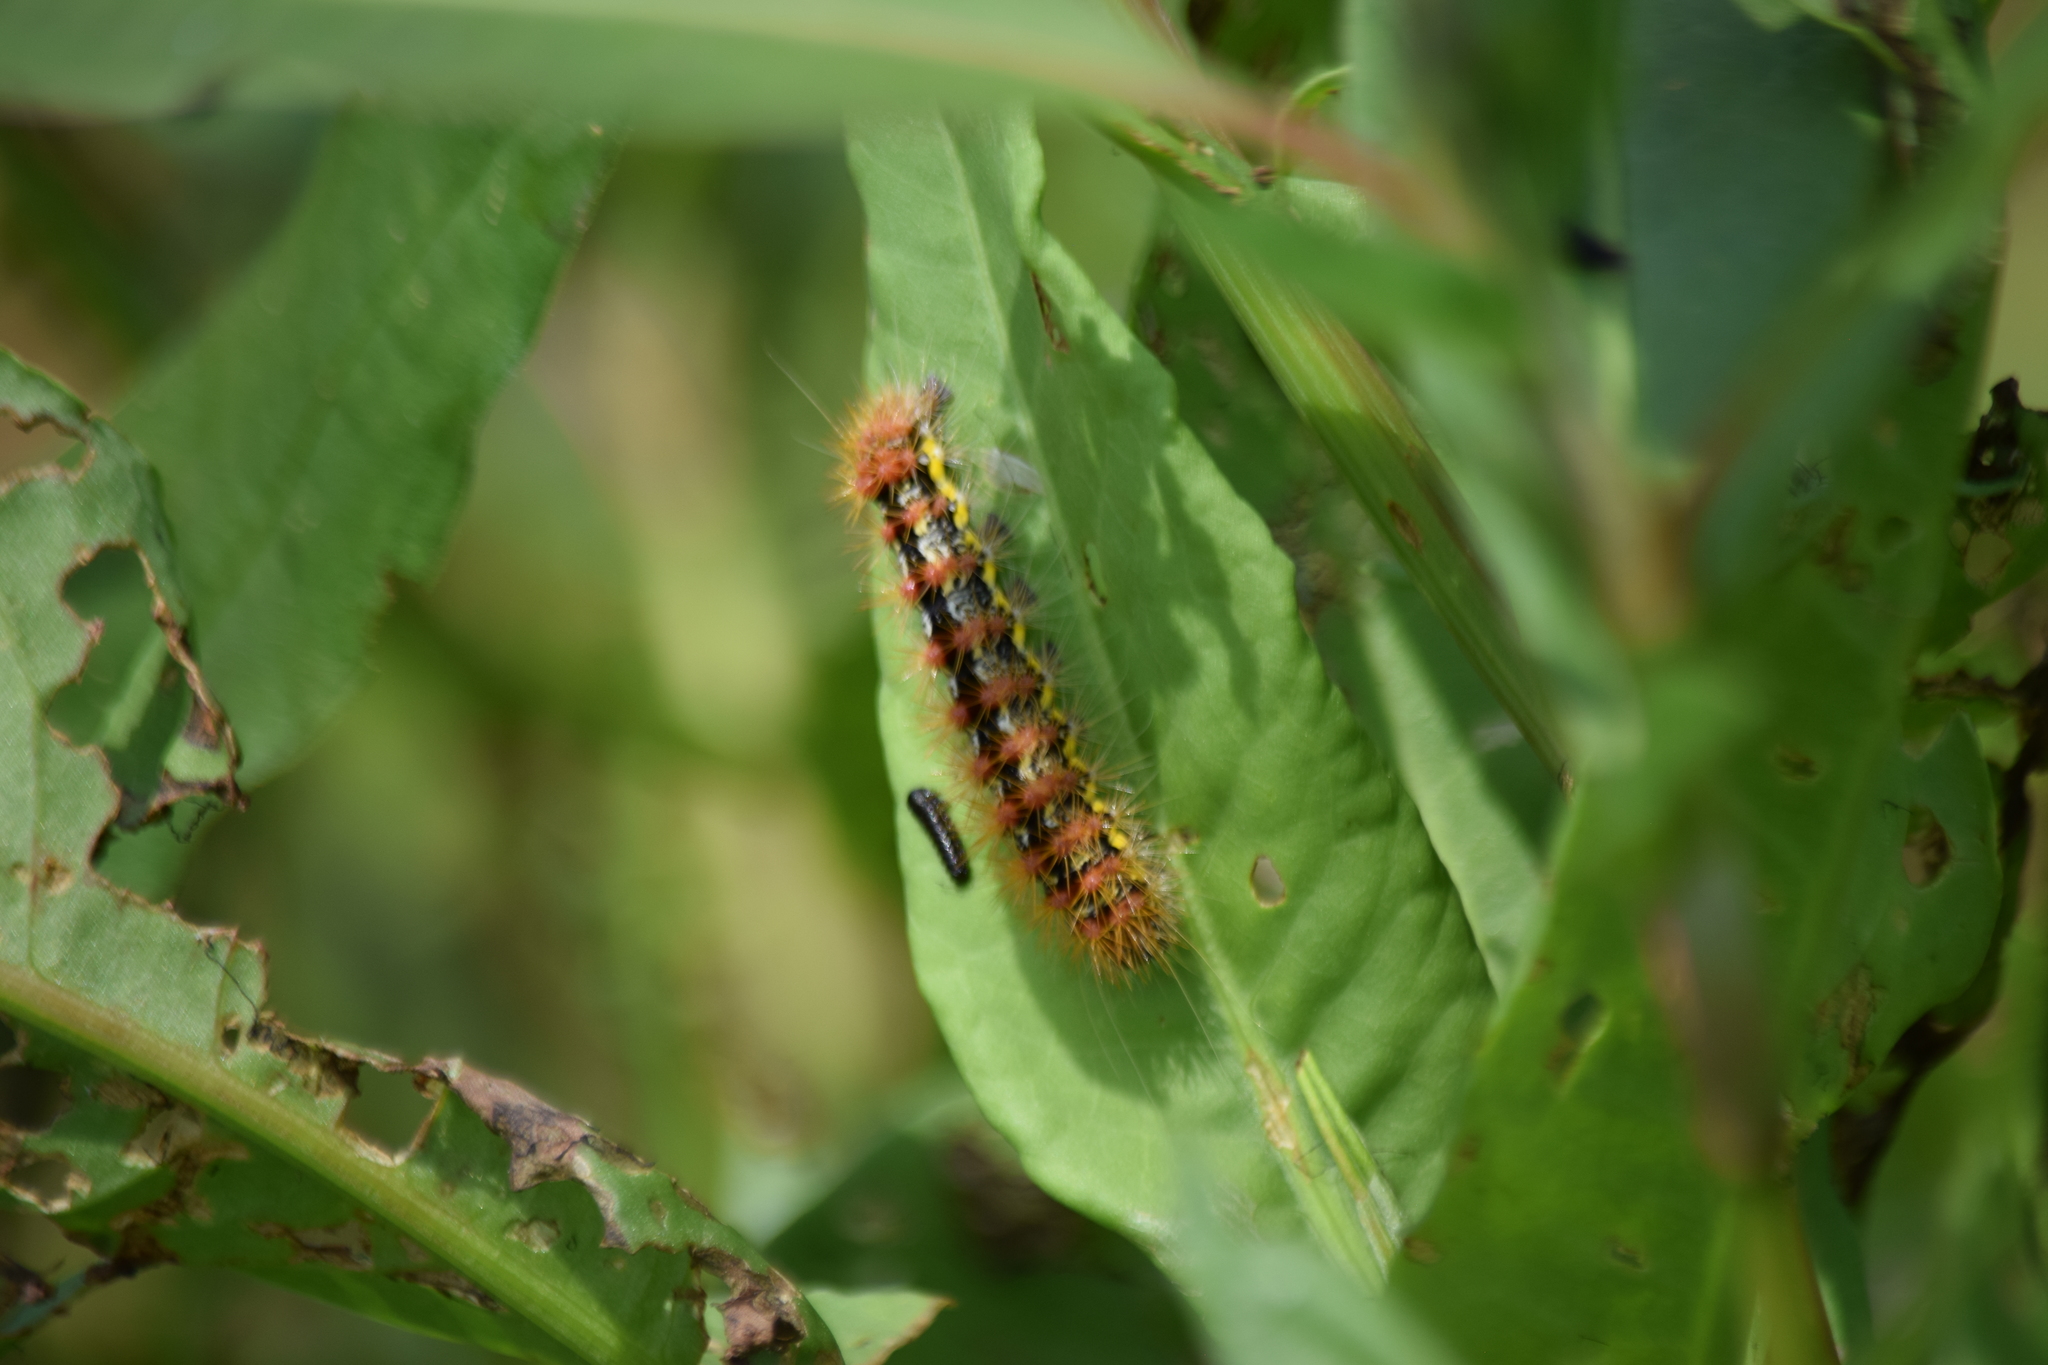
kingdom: Animalia
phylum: Arthropoda
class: Insecta
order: Lepidoptera
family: Noctuidae
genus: Acronicta
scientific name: Acronicta oblinita
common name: Smeared dagger
